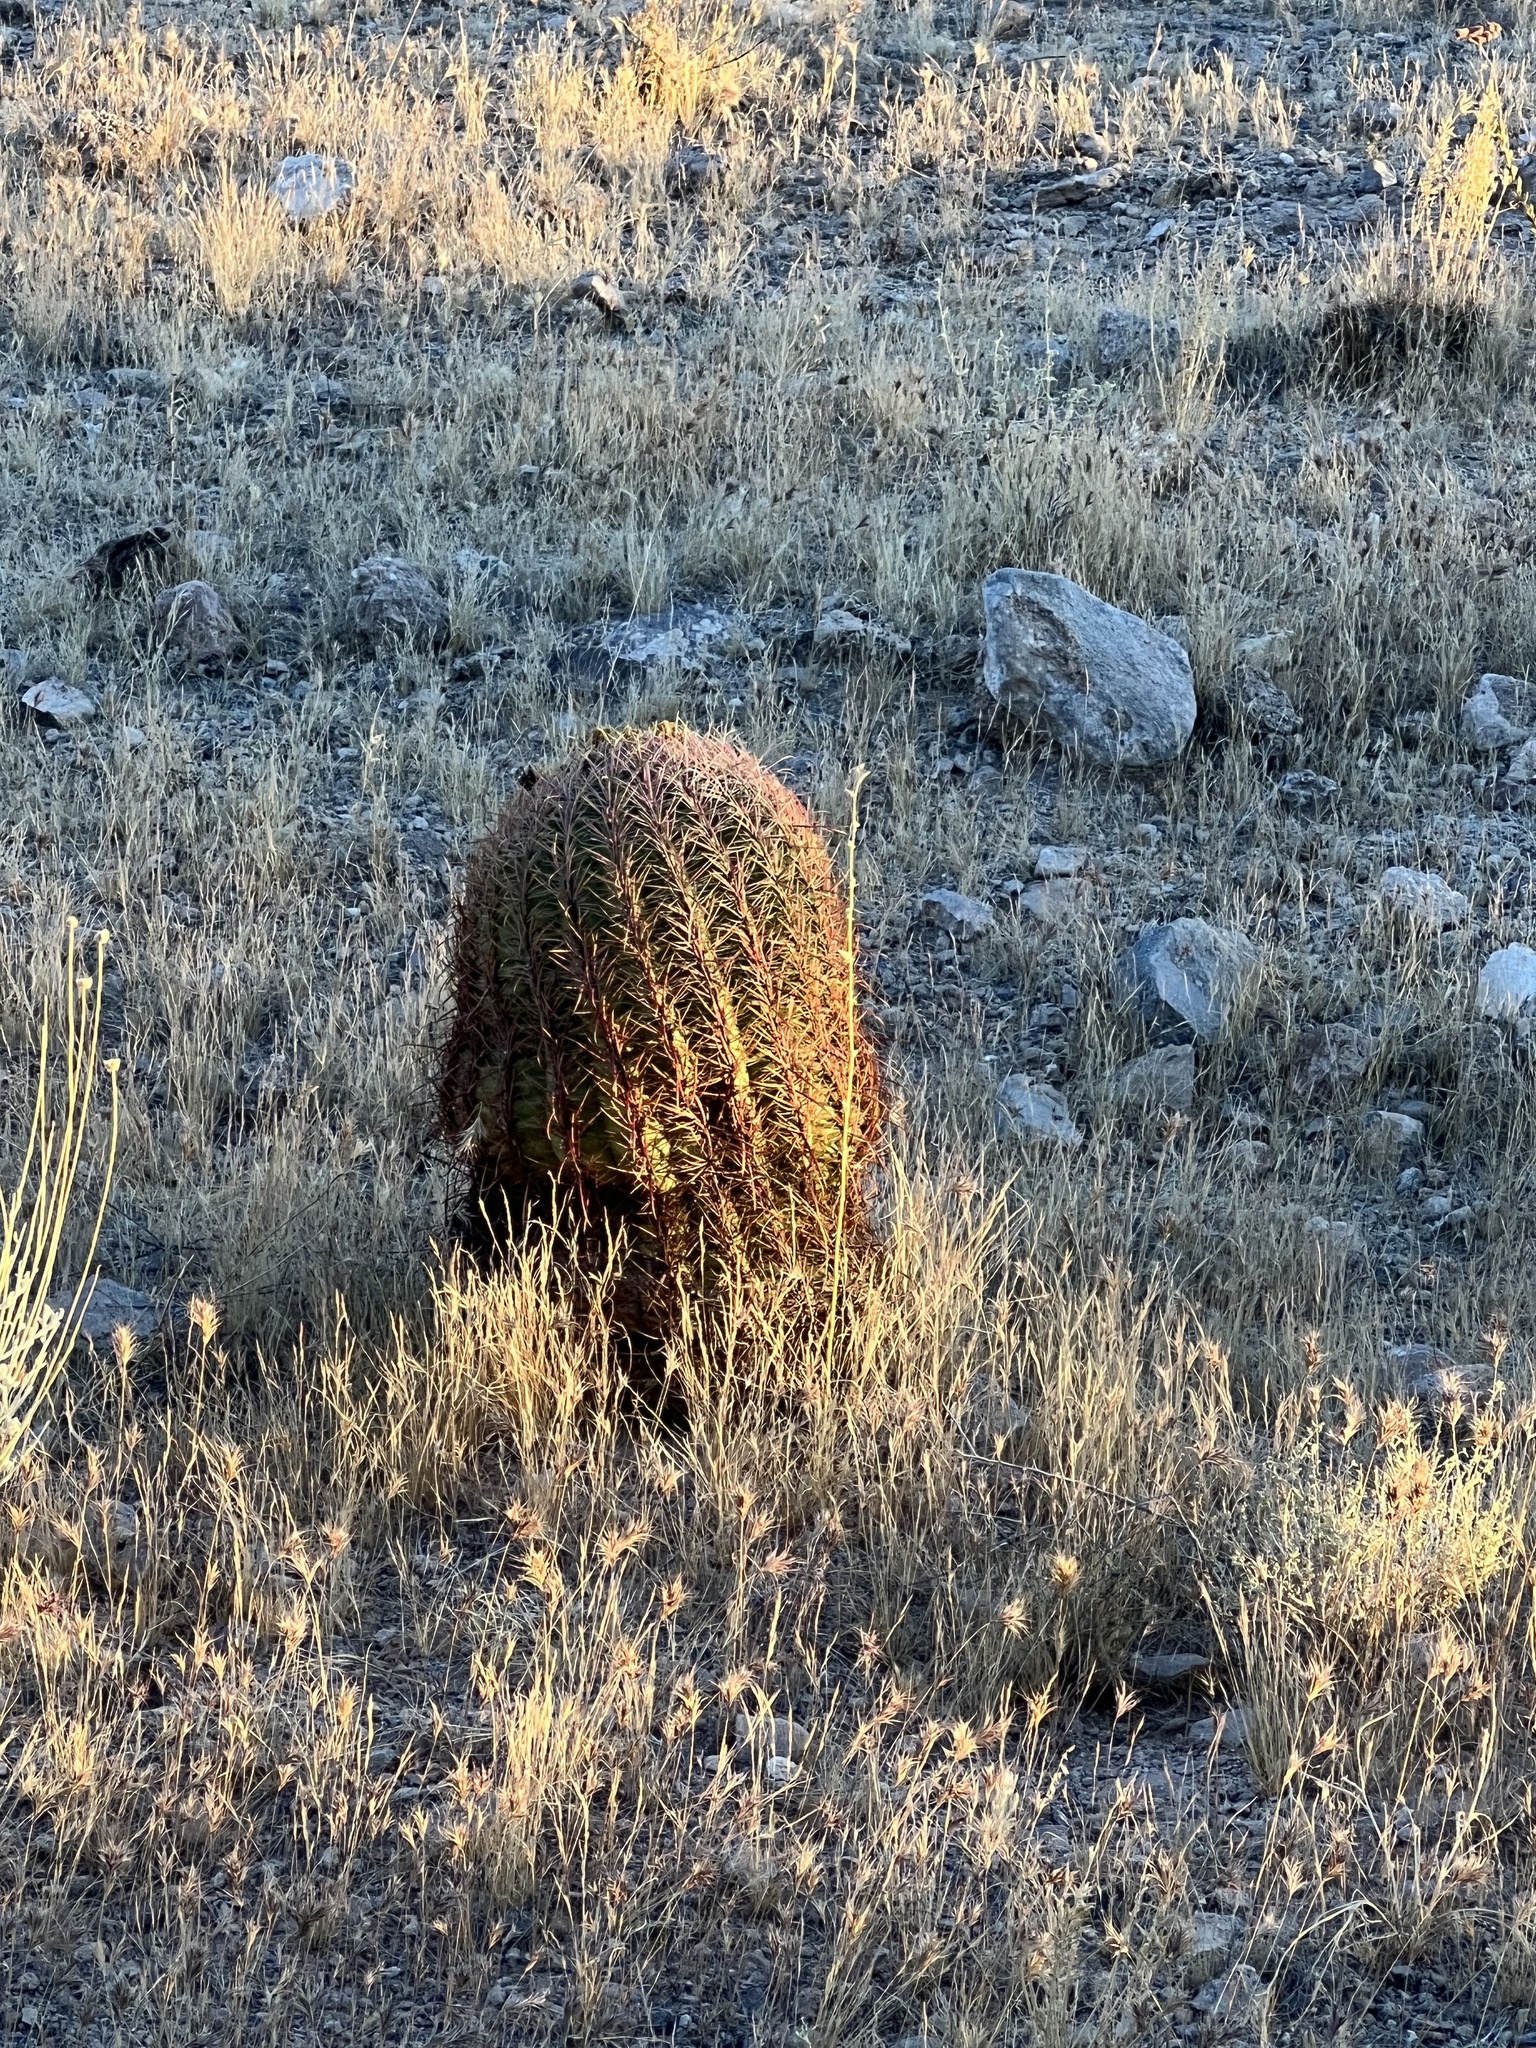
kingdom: Plantae
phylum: Tracheophyta
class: Magnoliopsida
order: Caryophyllales
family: Cactaceae
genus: Ferocactus
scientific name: Ferocactus cylindraceus
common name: California barrel cactus
